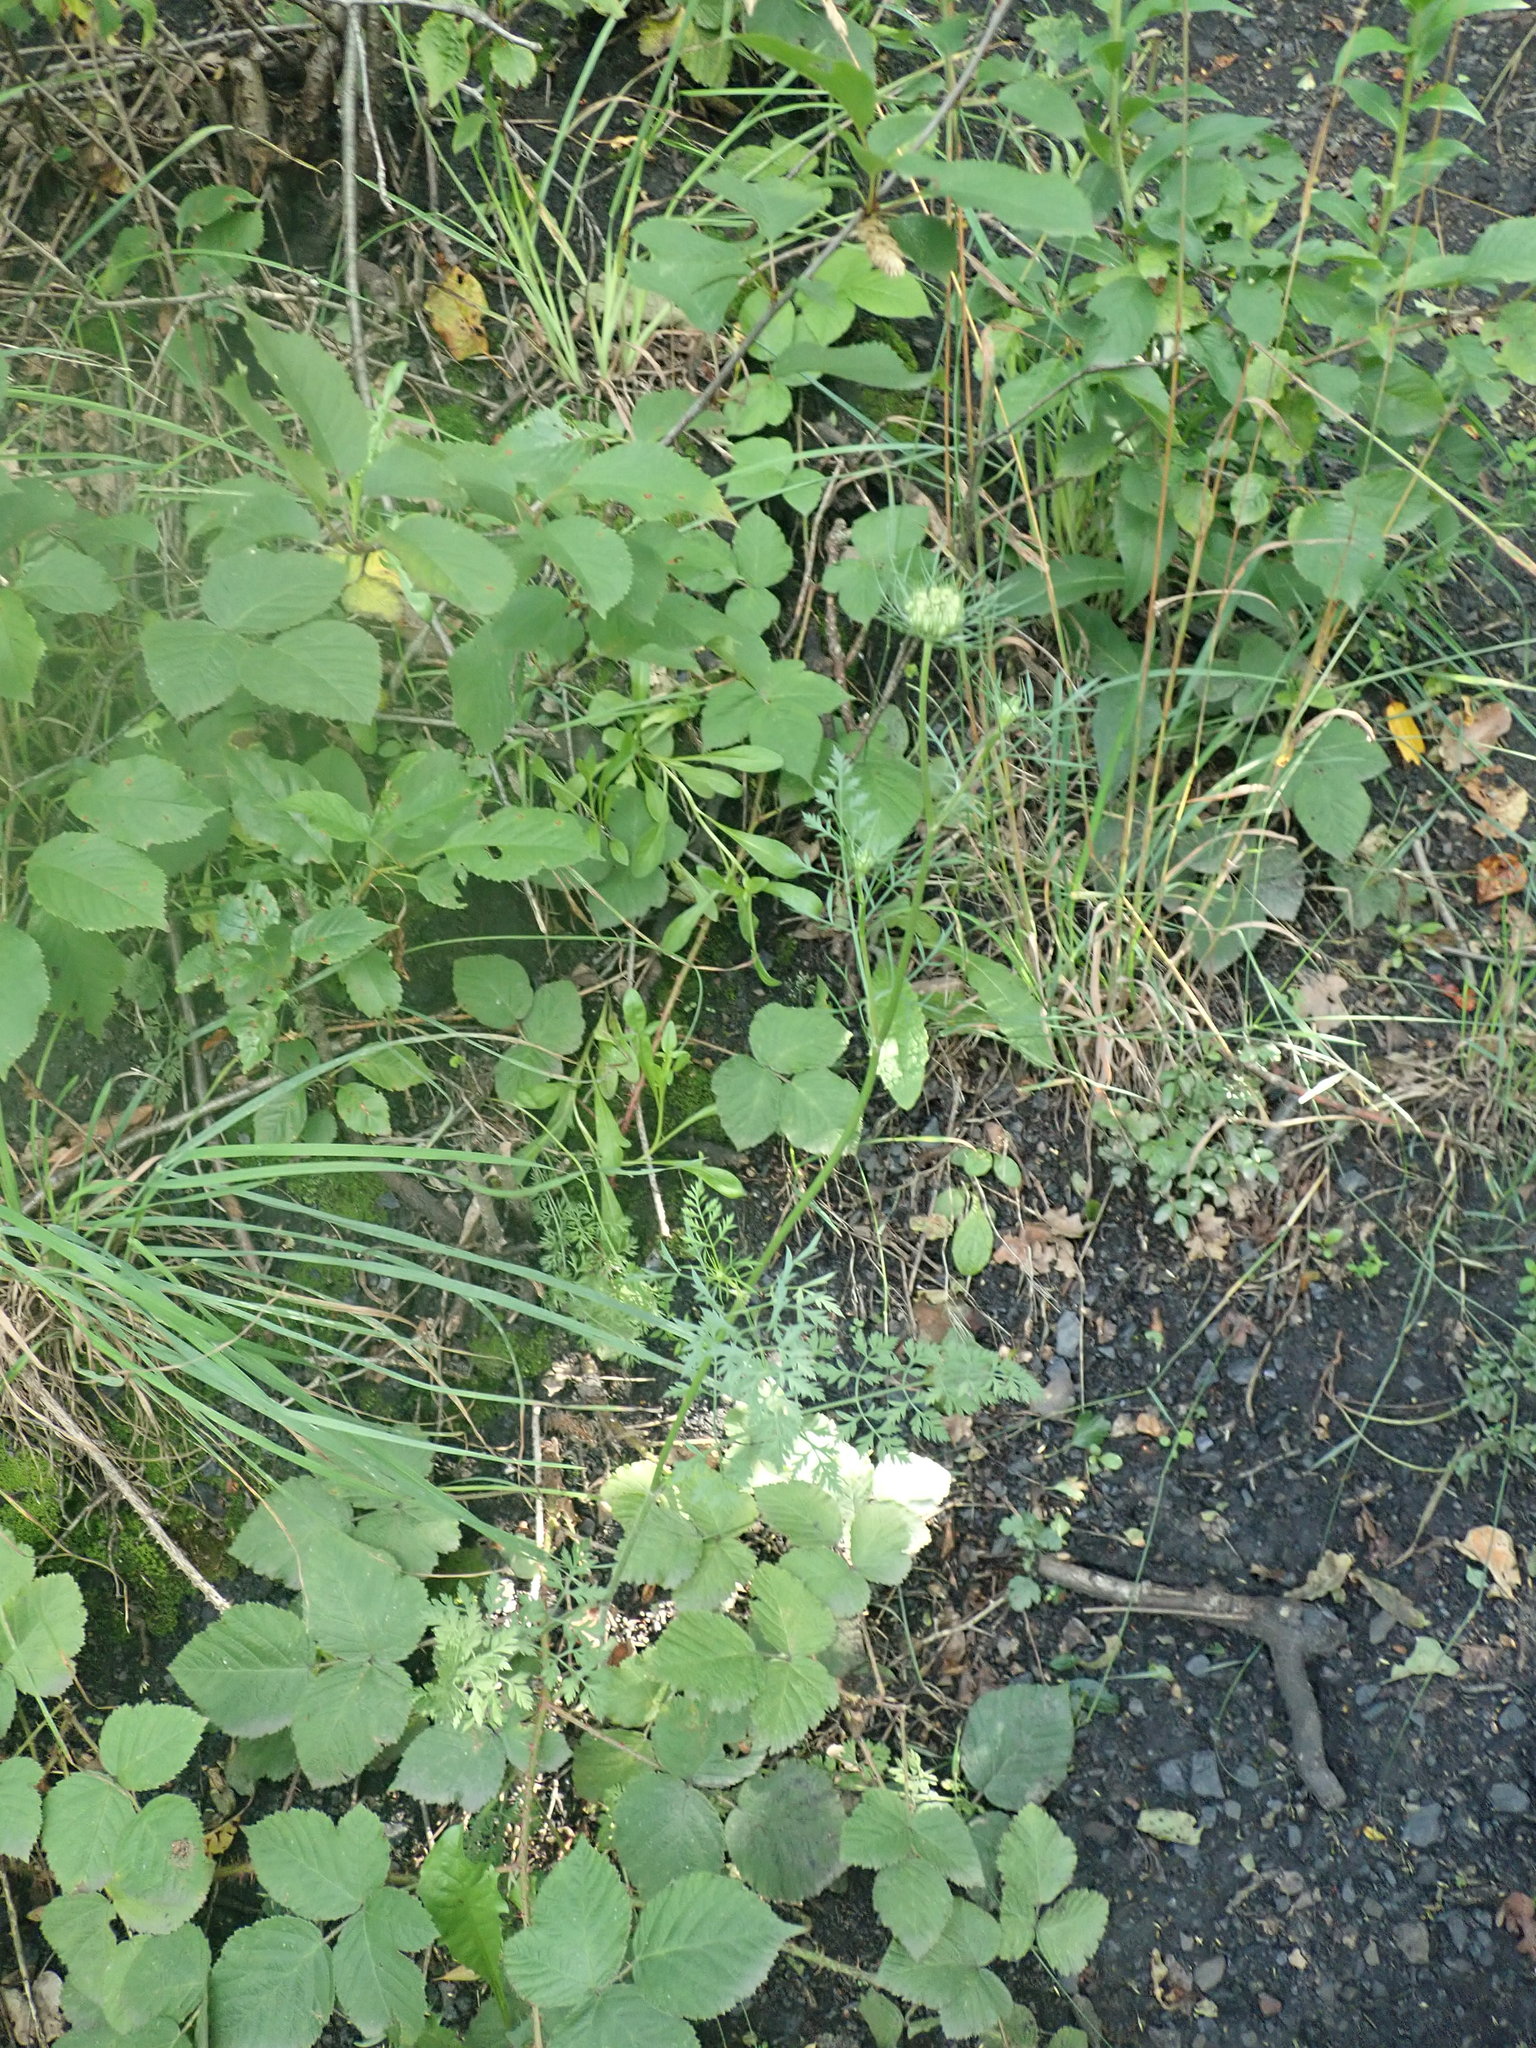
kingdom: Plantae
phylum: Tracheophyta
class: Magnoliopsida
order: Apiales
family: Apiaceae
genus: Daucus
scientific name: Daucus carota
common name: Wild carrot
